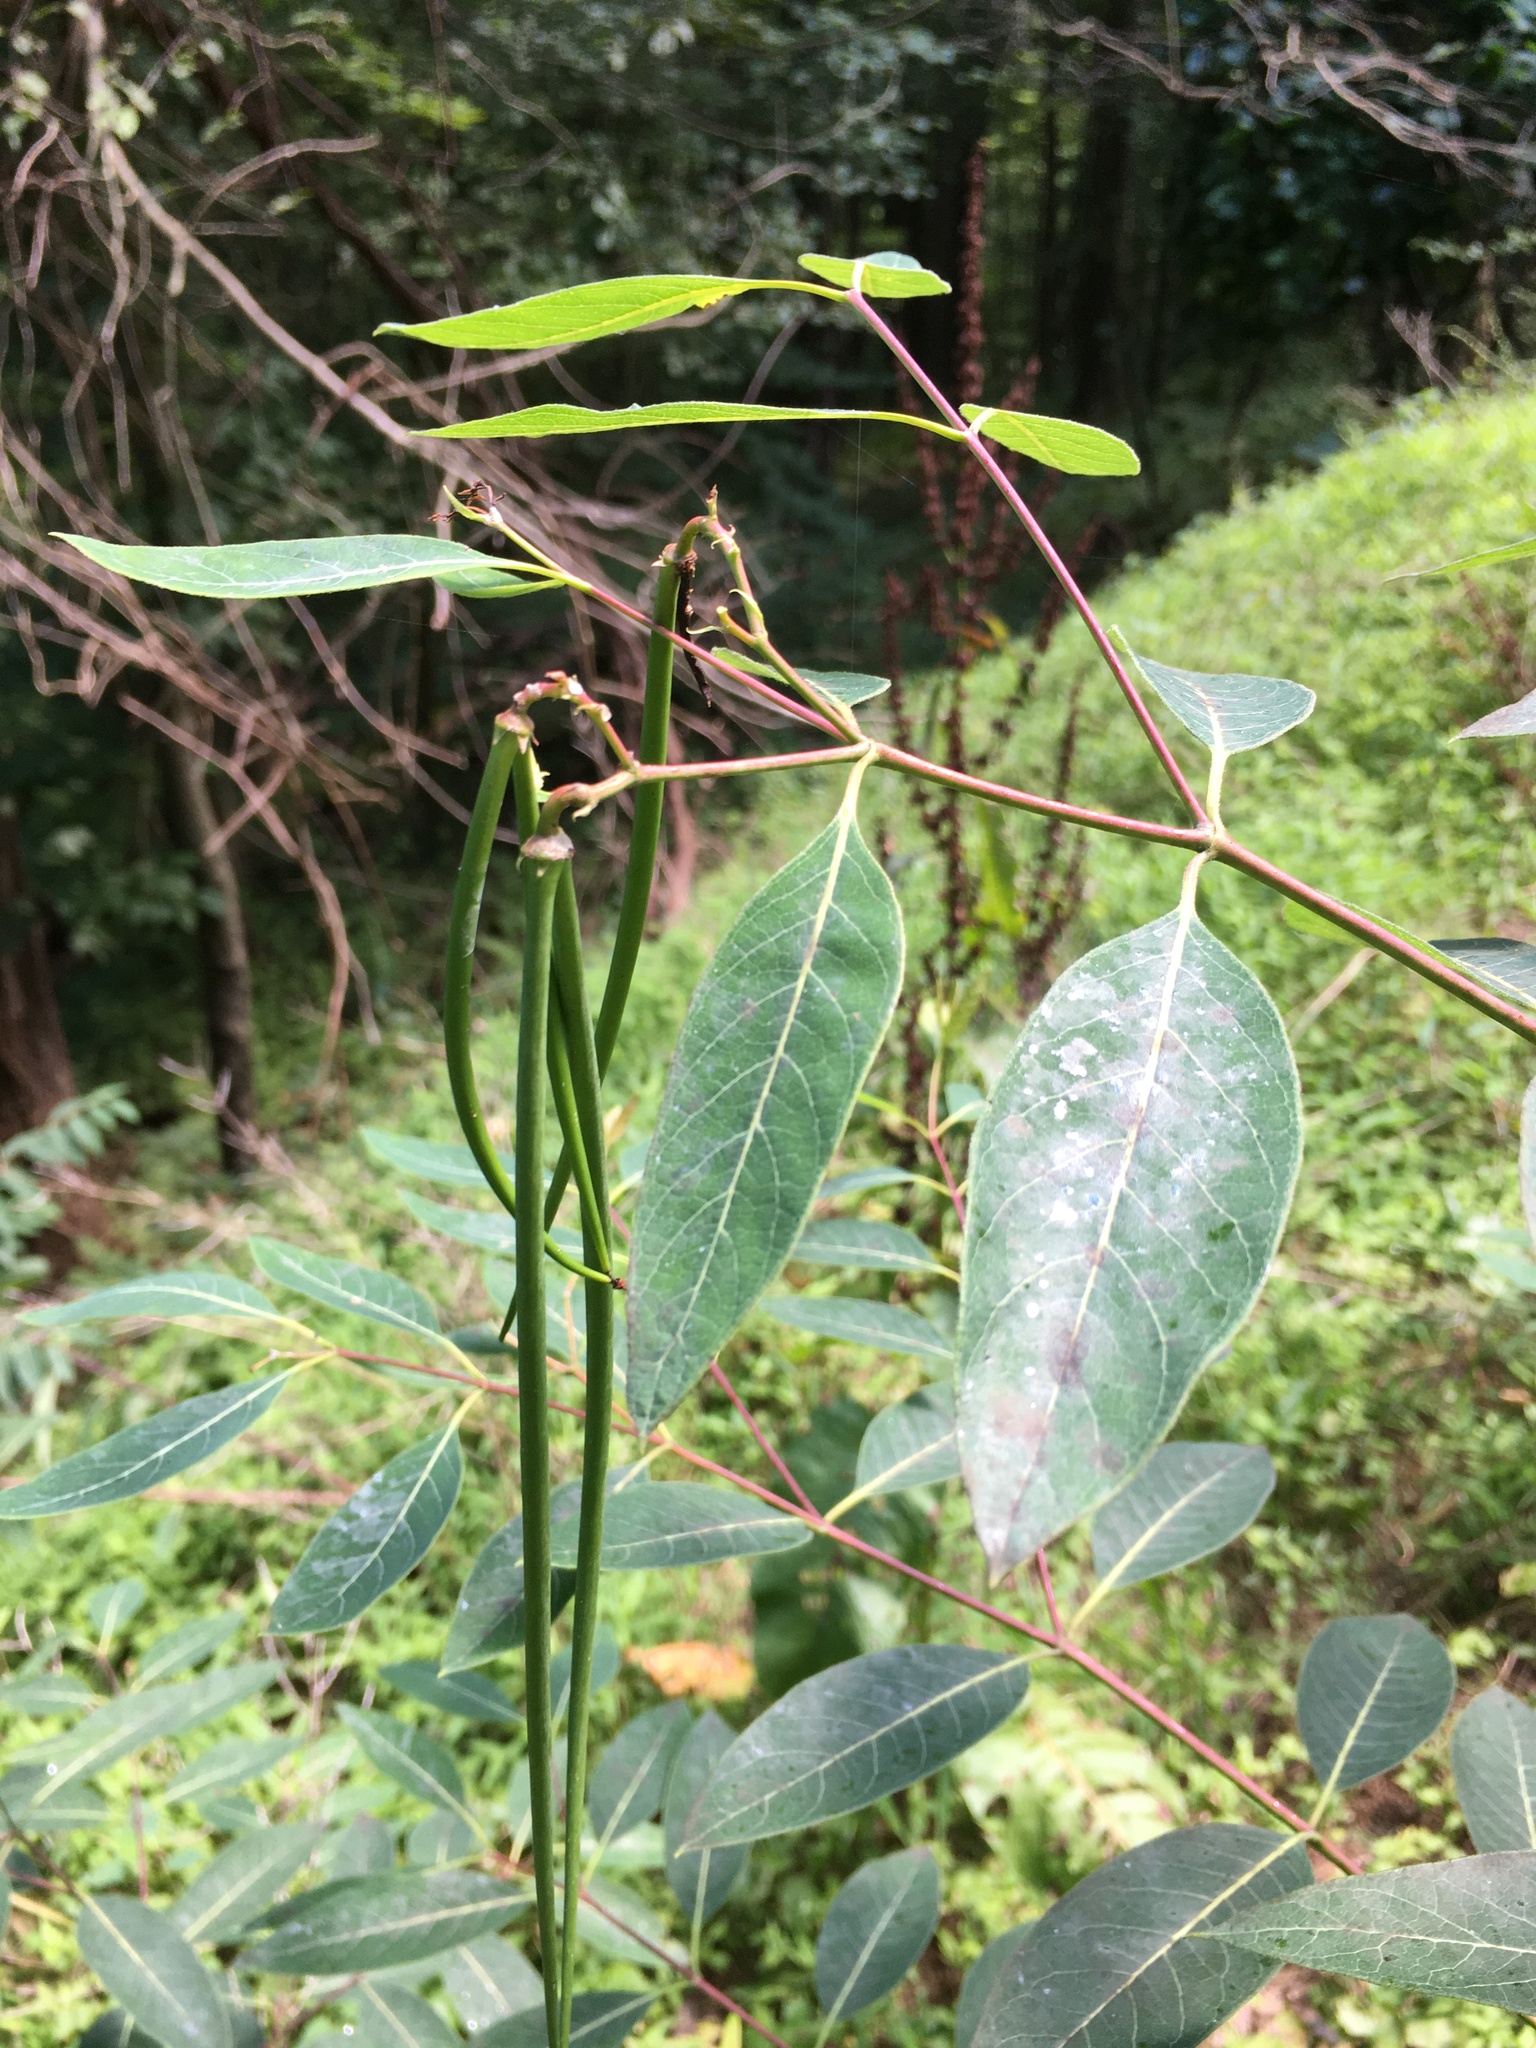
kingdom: Plantae
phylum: Tracheophyta
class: Magnoliopsida
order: Gentianales
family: Apocynaceae
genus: Apocynum
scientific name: Apocynum cannabinum
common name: Hemp dogbane
